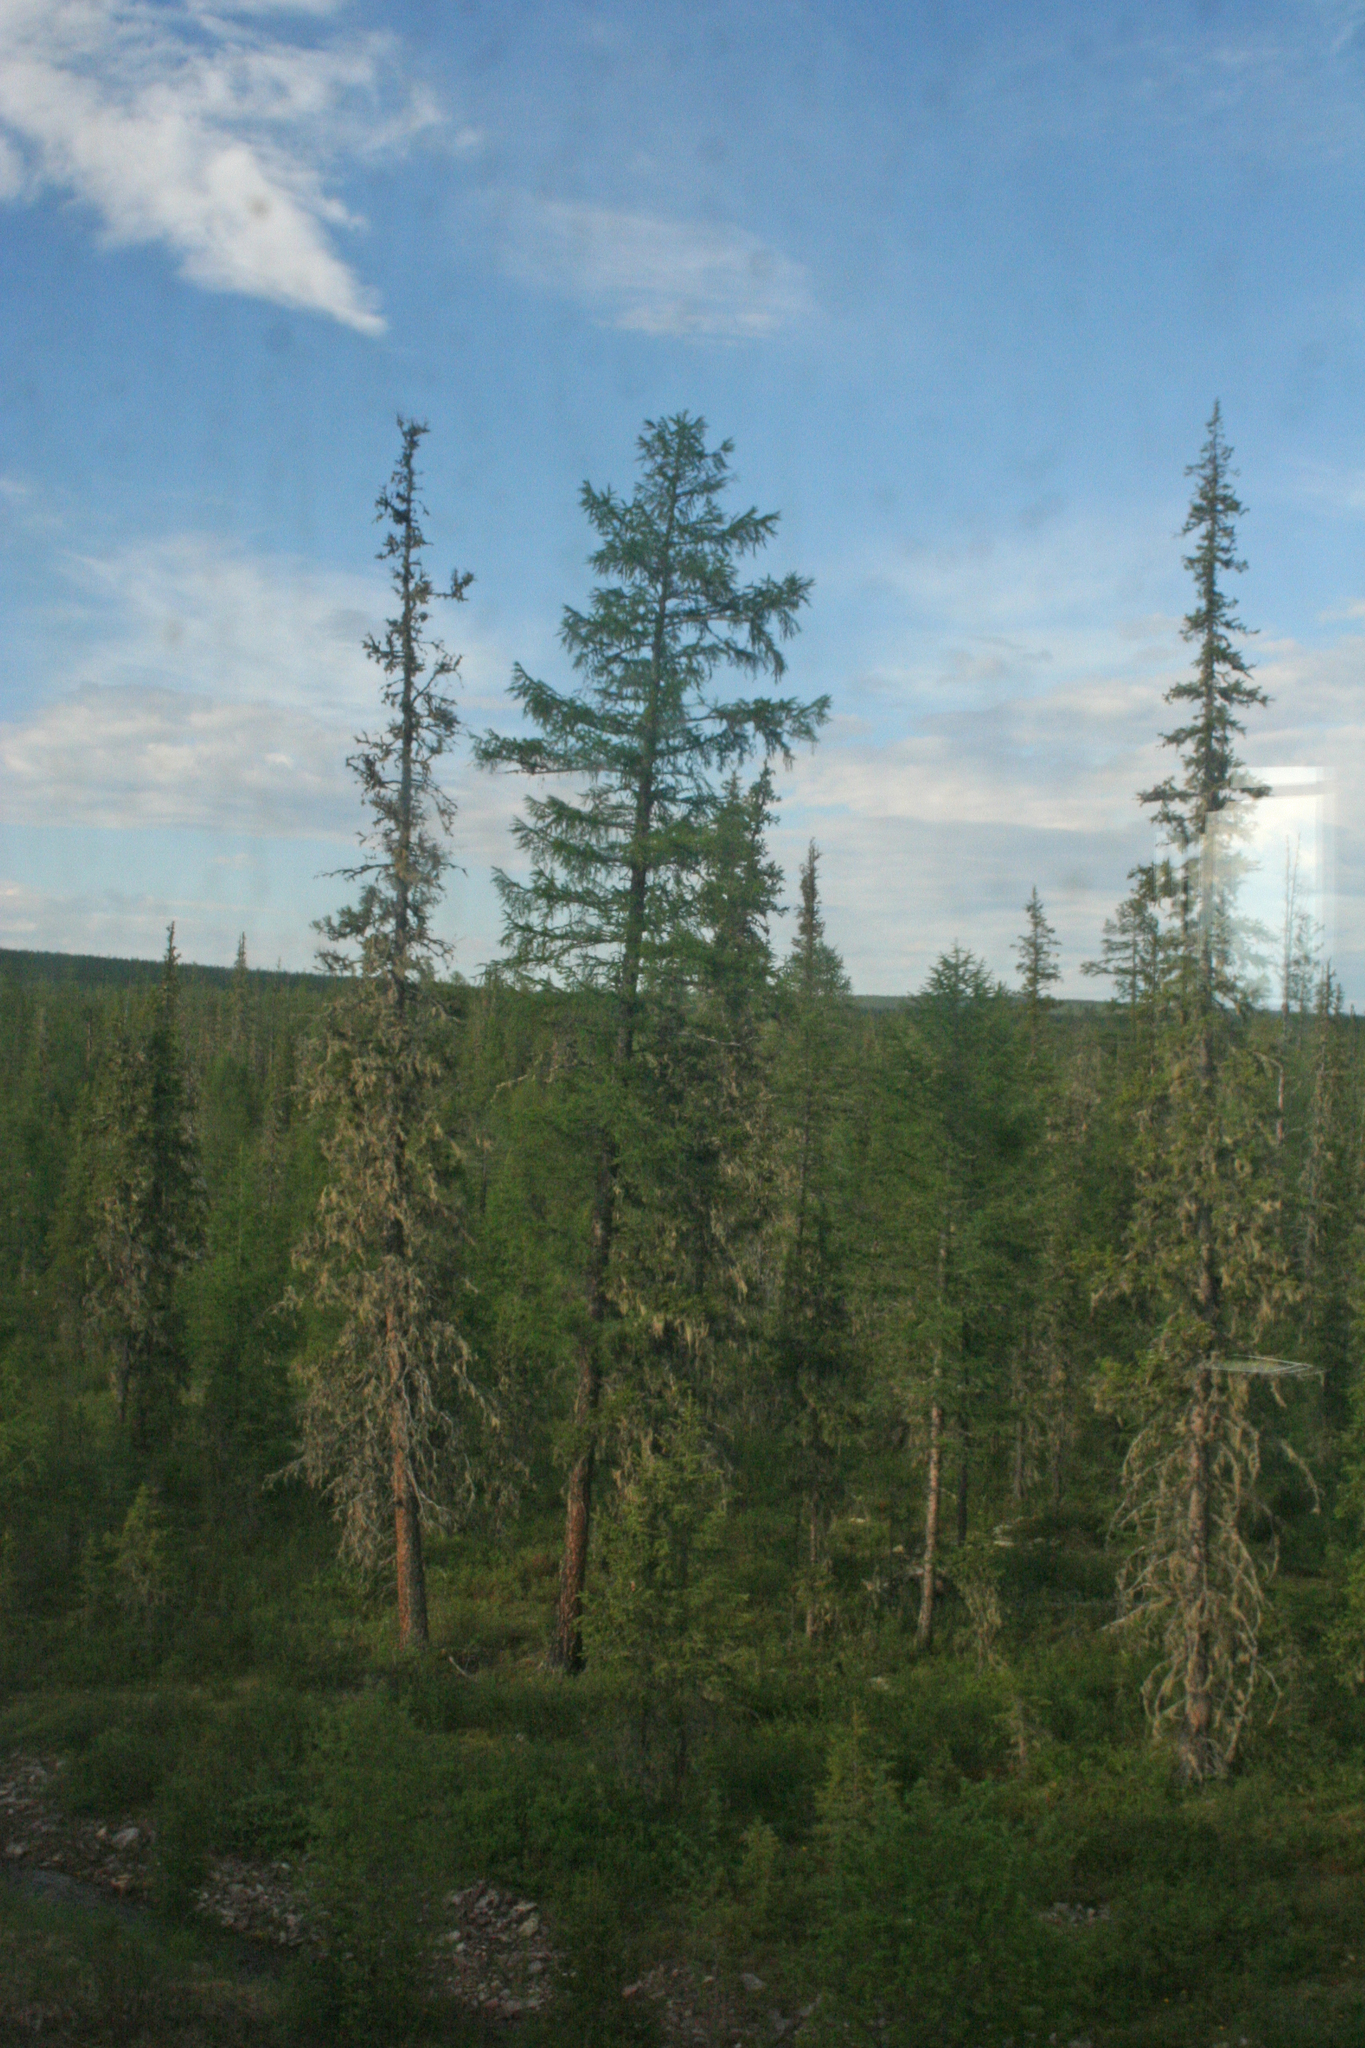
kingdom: Plantae
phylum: Tracheophyta
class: Pinopsida
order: Pinales
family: Pinaceae
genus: Larix
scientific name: Larix gmelinii
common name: Dahurian larch
